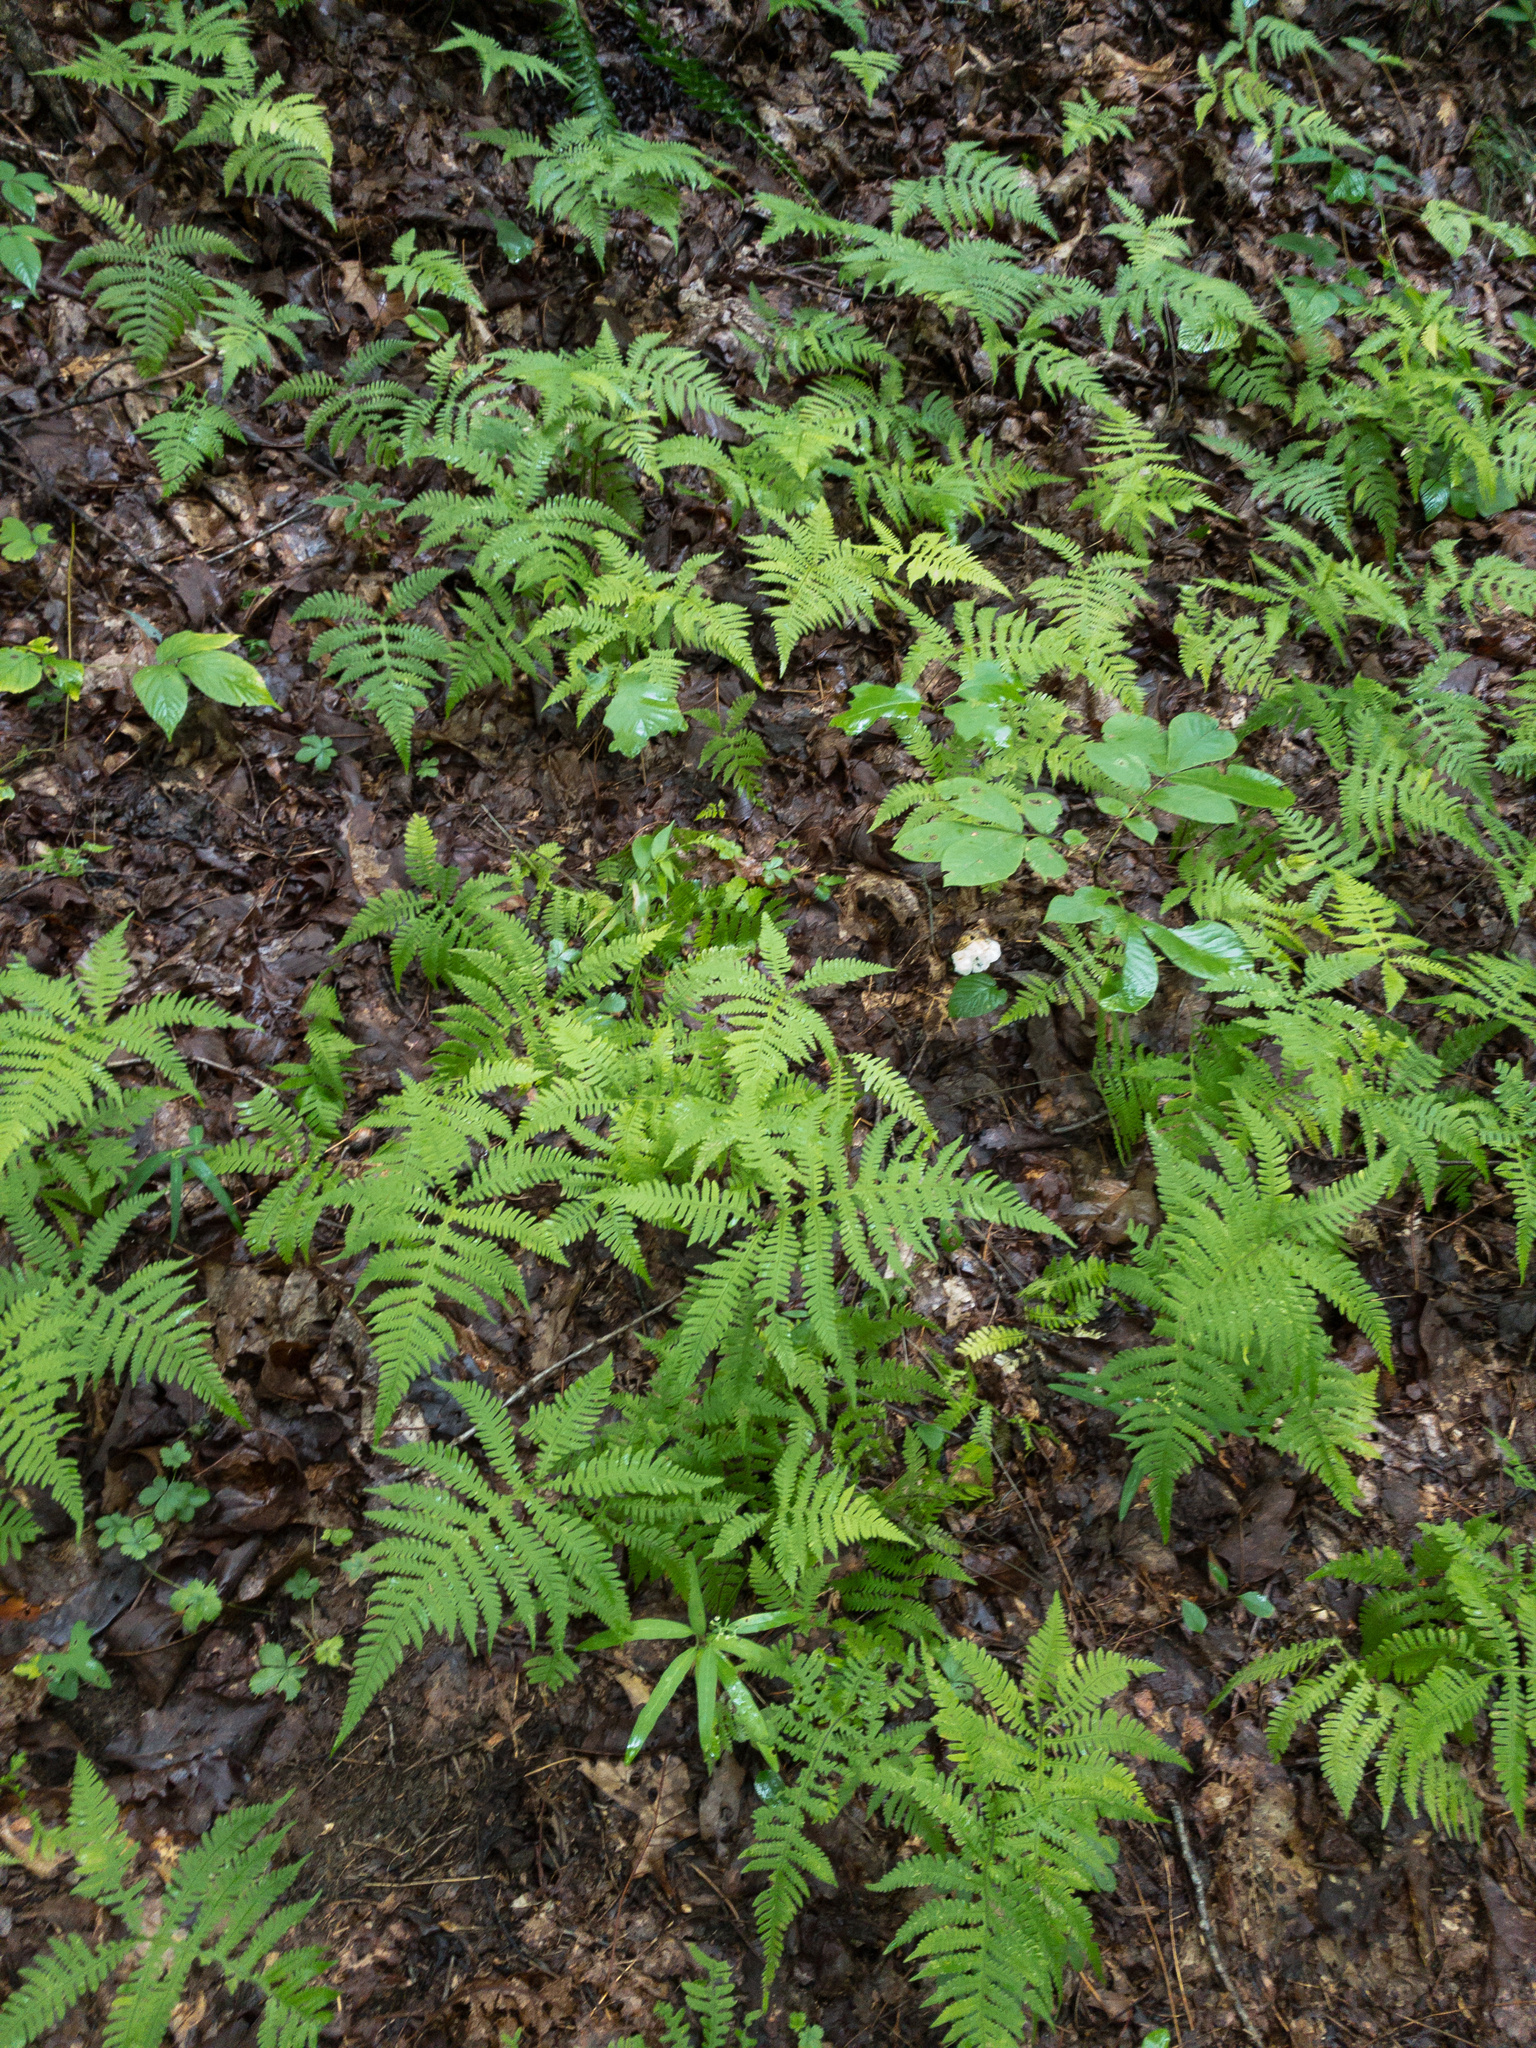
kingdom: Plantae
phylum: Tracheophyta
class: Polypodiopsida
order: Polypodiales
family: Thelypteridaceae
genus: Phegopteris
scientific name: Phegopteris hexagonoptera
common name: Broad beech fern
